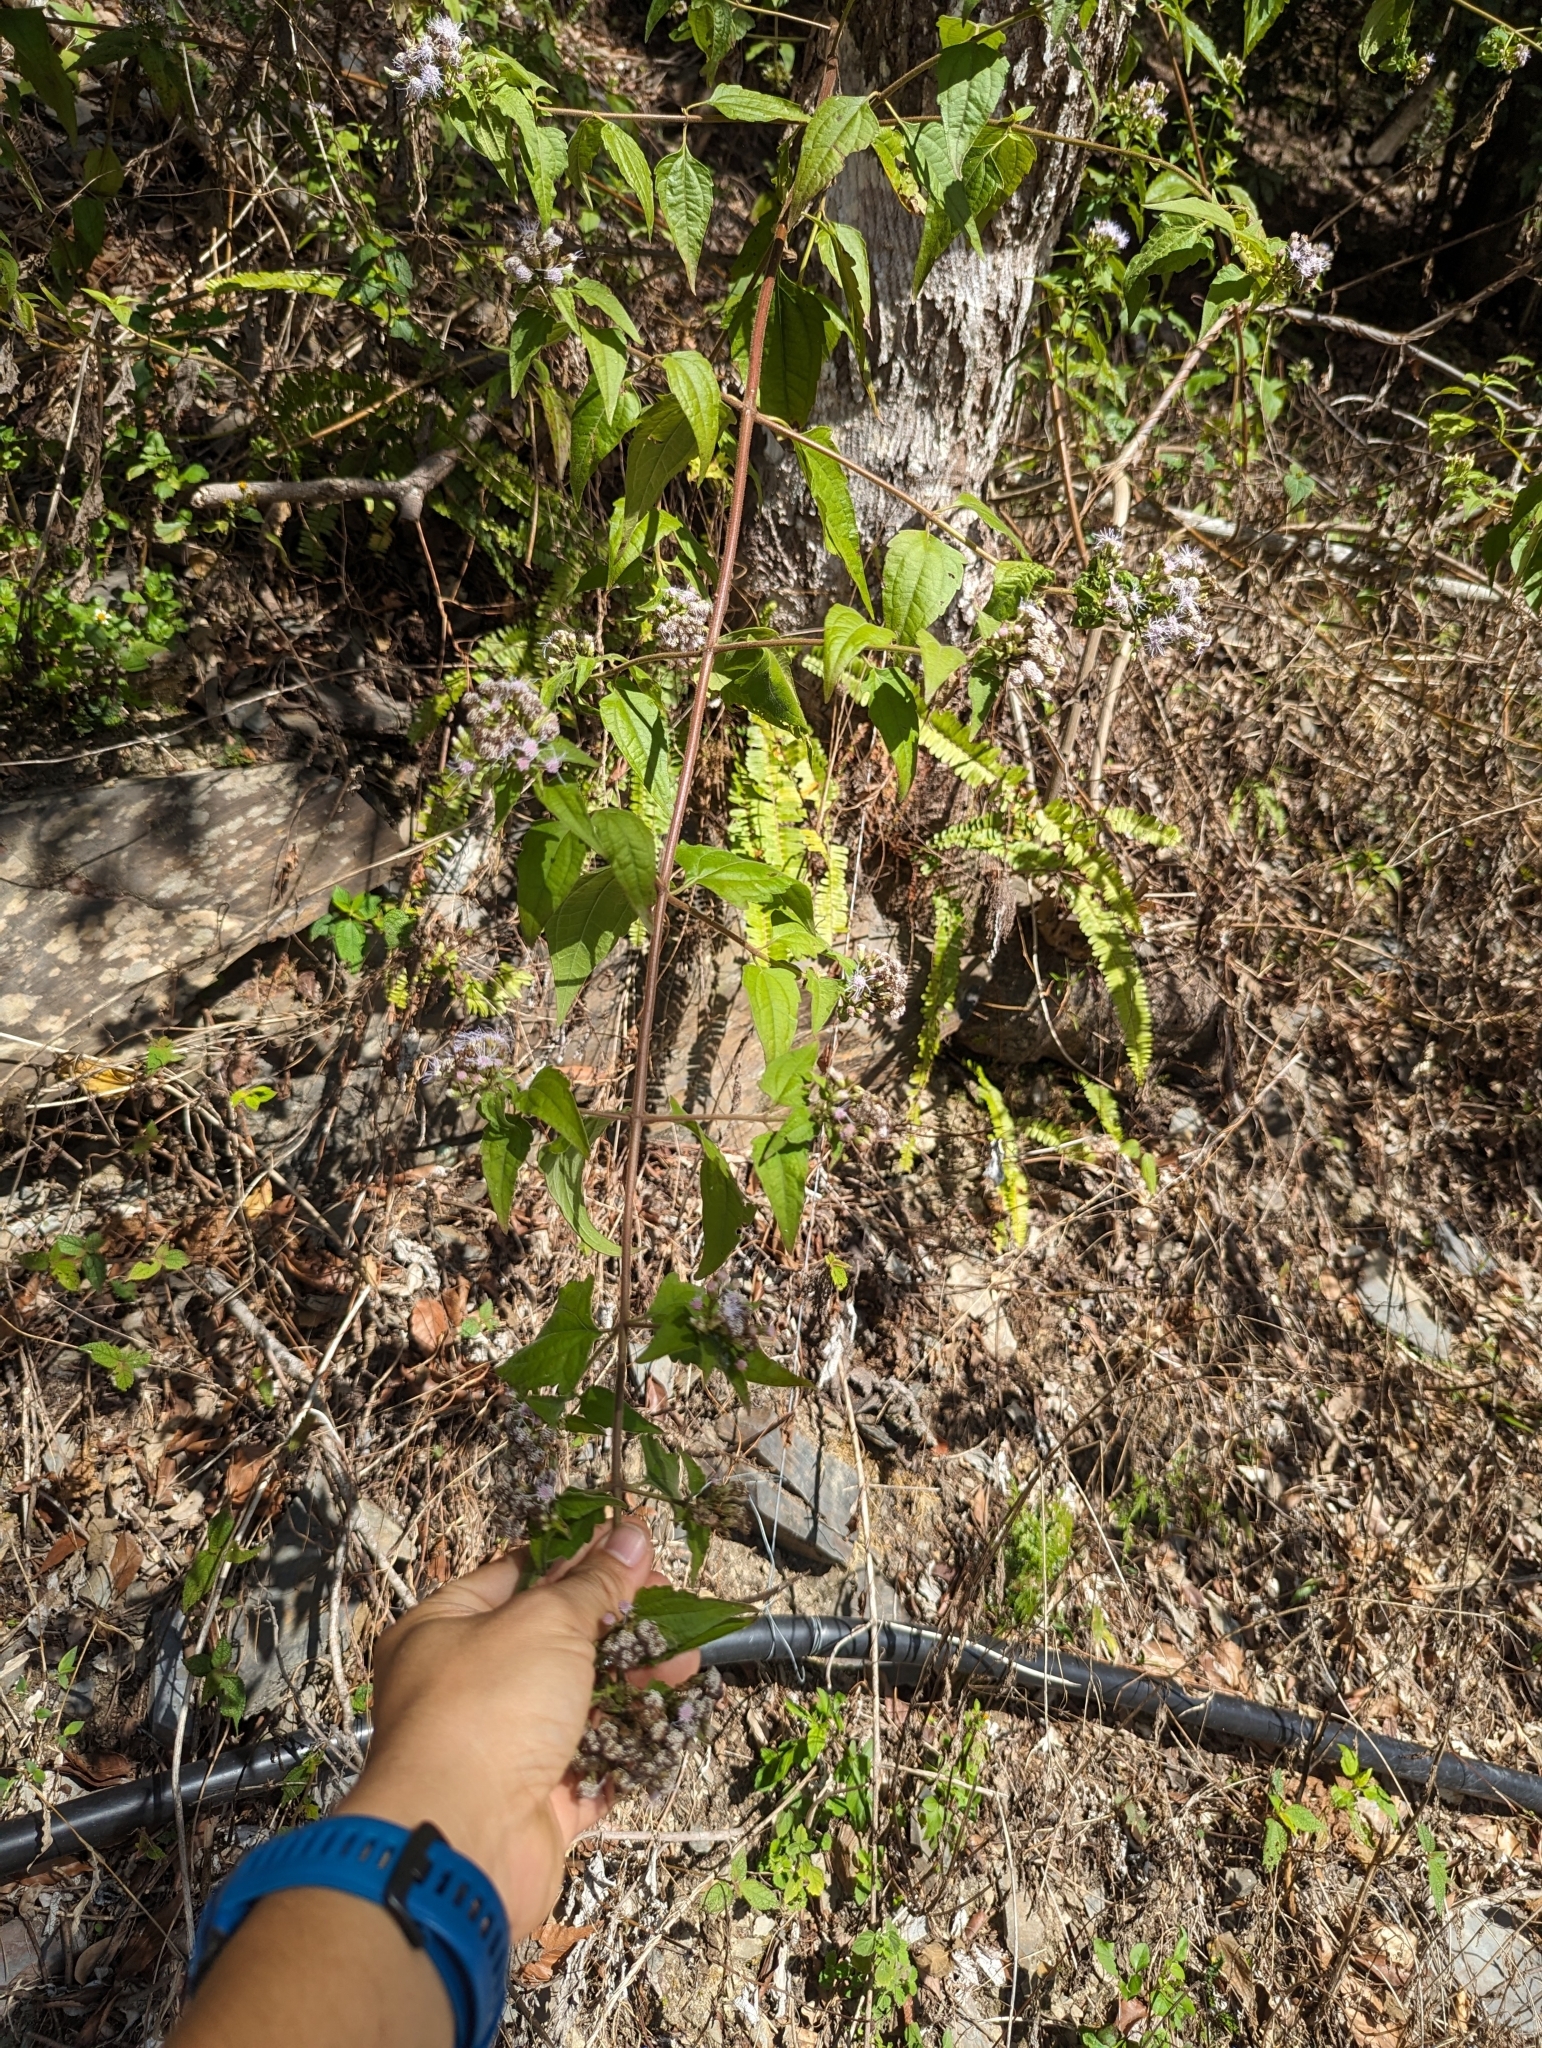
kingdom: Plantae
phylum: Tracheophyta
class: Magnoliopsida
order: Asterales
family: Asteraceae
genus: Chromolaena
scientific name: Chromolaena odorata
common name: Siamweed
